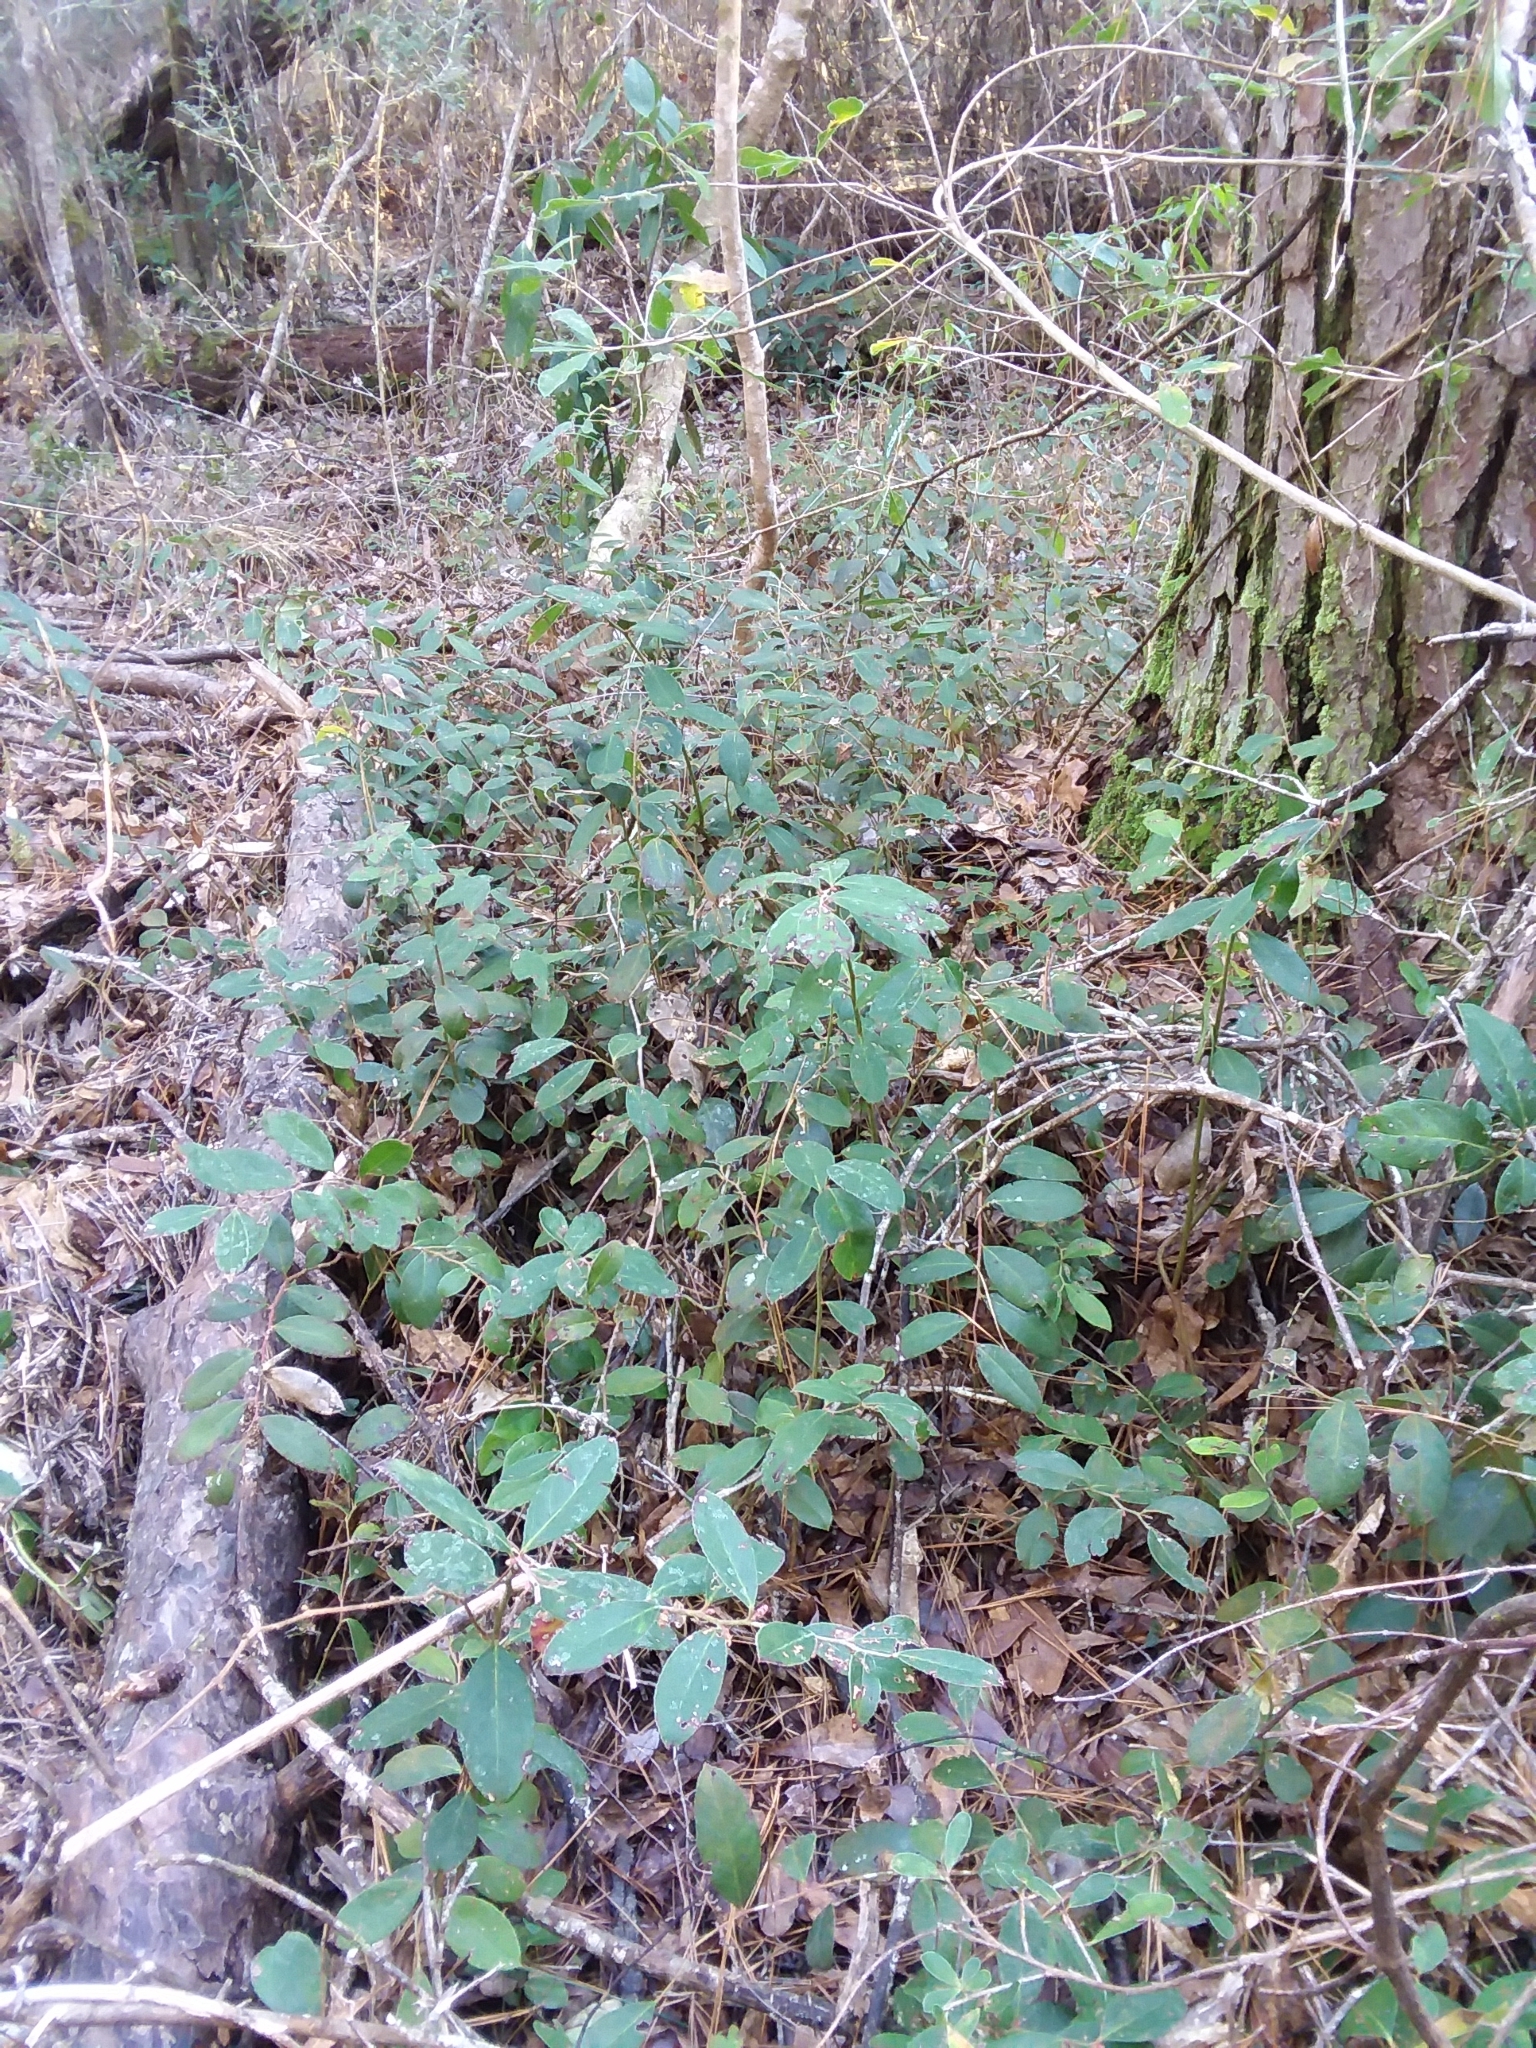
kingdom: Plantae
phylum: Tracheophyta
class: Magnoliopsida
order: Ericales
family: Ericaceae
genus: Leucothoe
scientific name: Leucothoe axillaris
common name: Leucothoe
